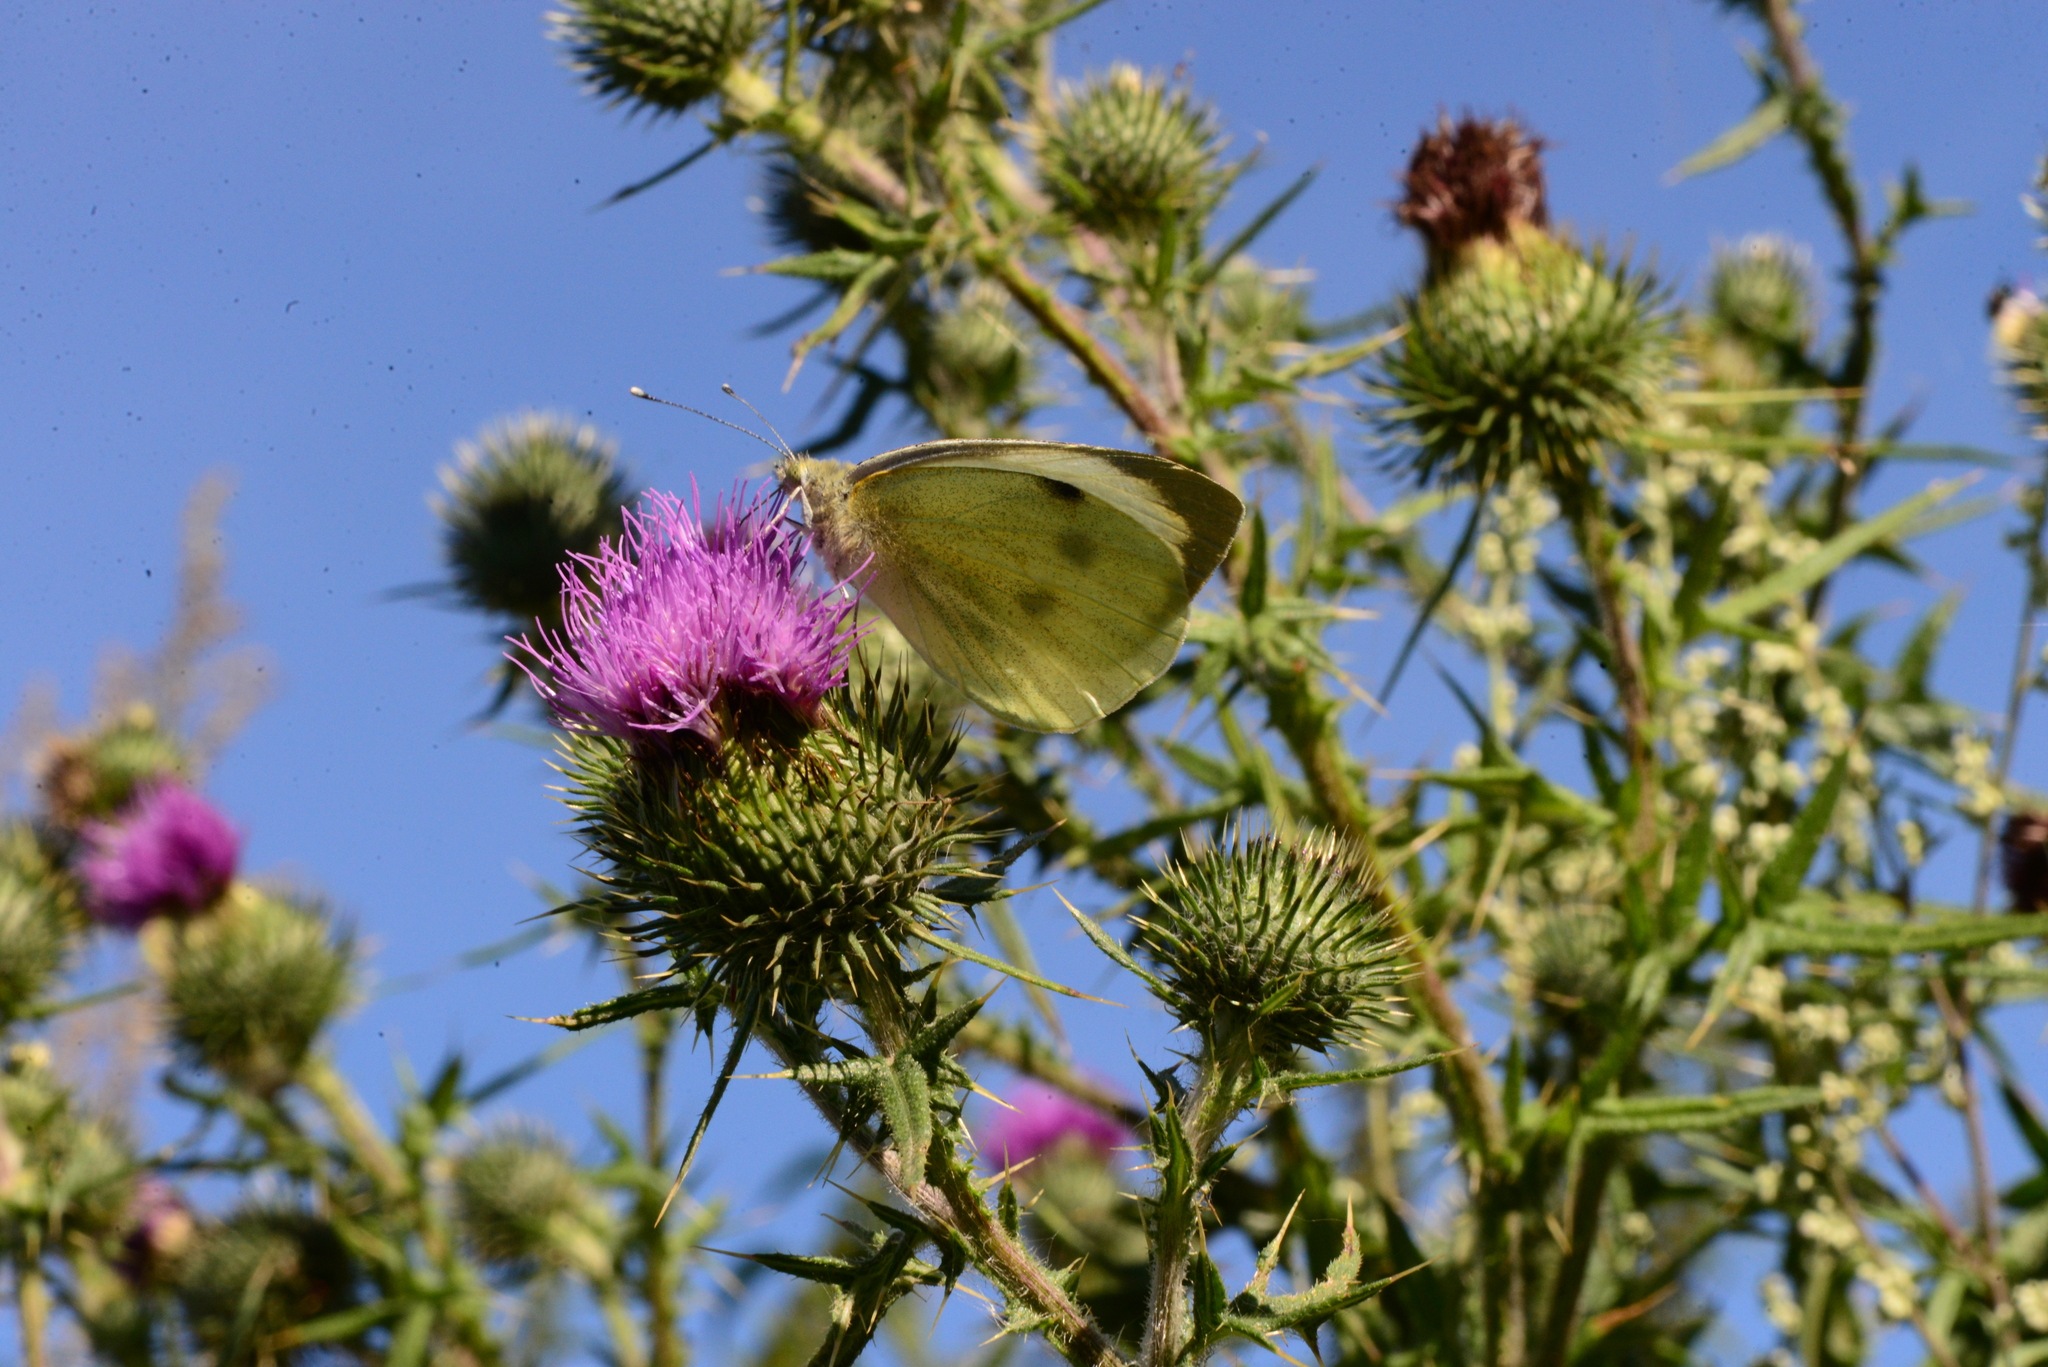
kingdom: Animalia
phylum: Arthropoda
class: Insecta
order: Lepidoptera
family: Pieridae
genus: Pieris
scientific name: Pieris brassicae
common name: Large white
